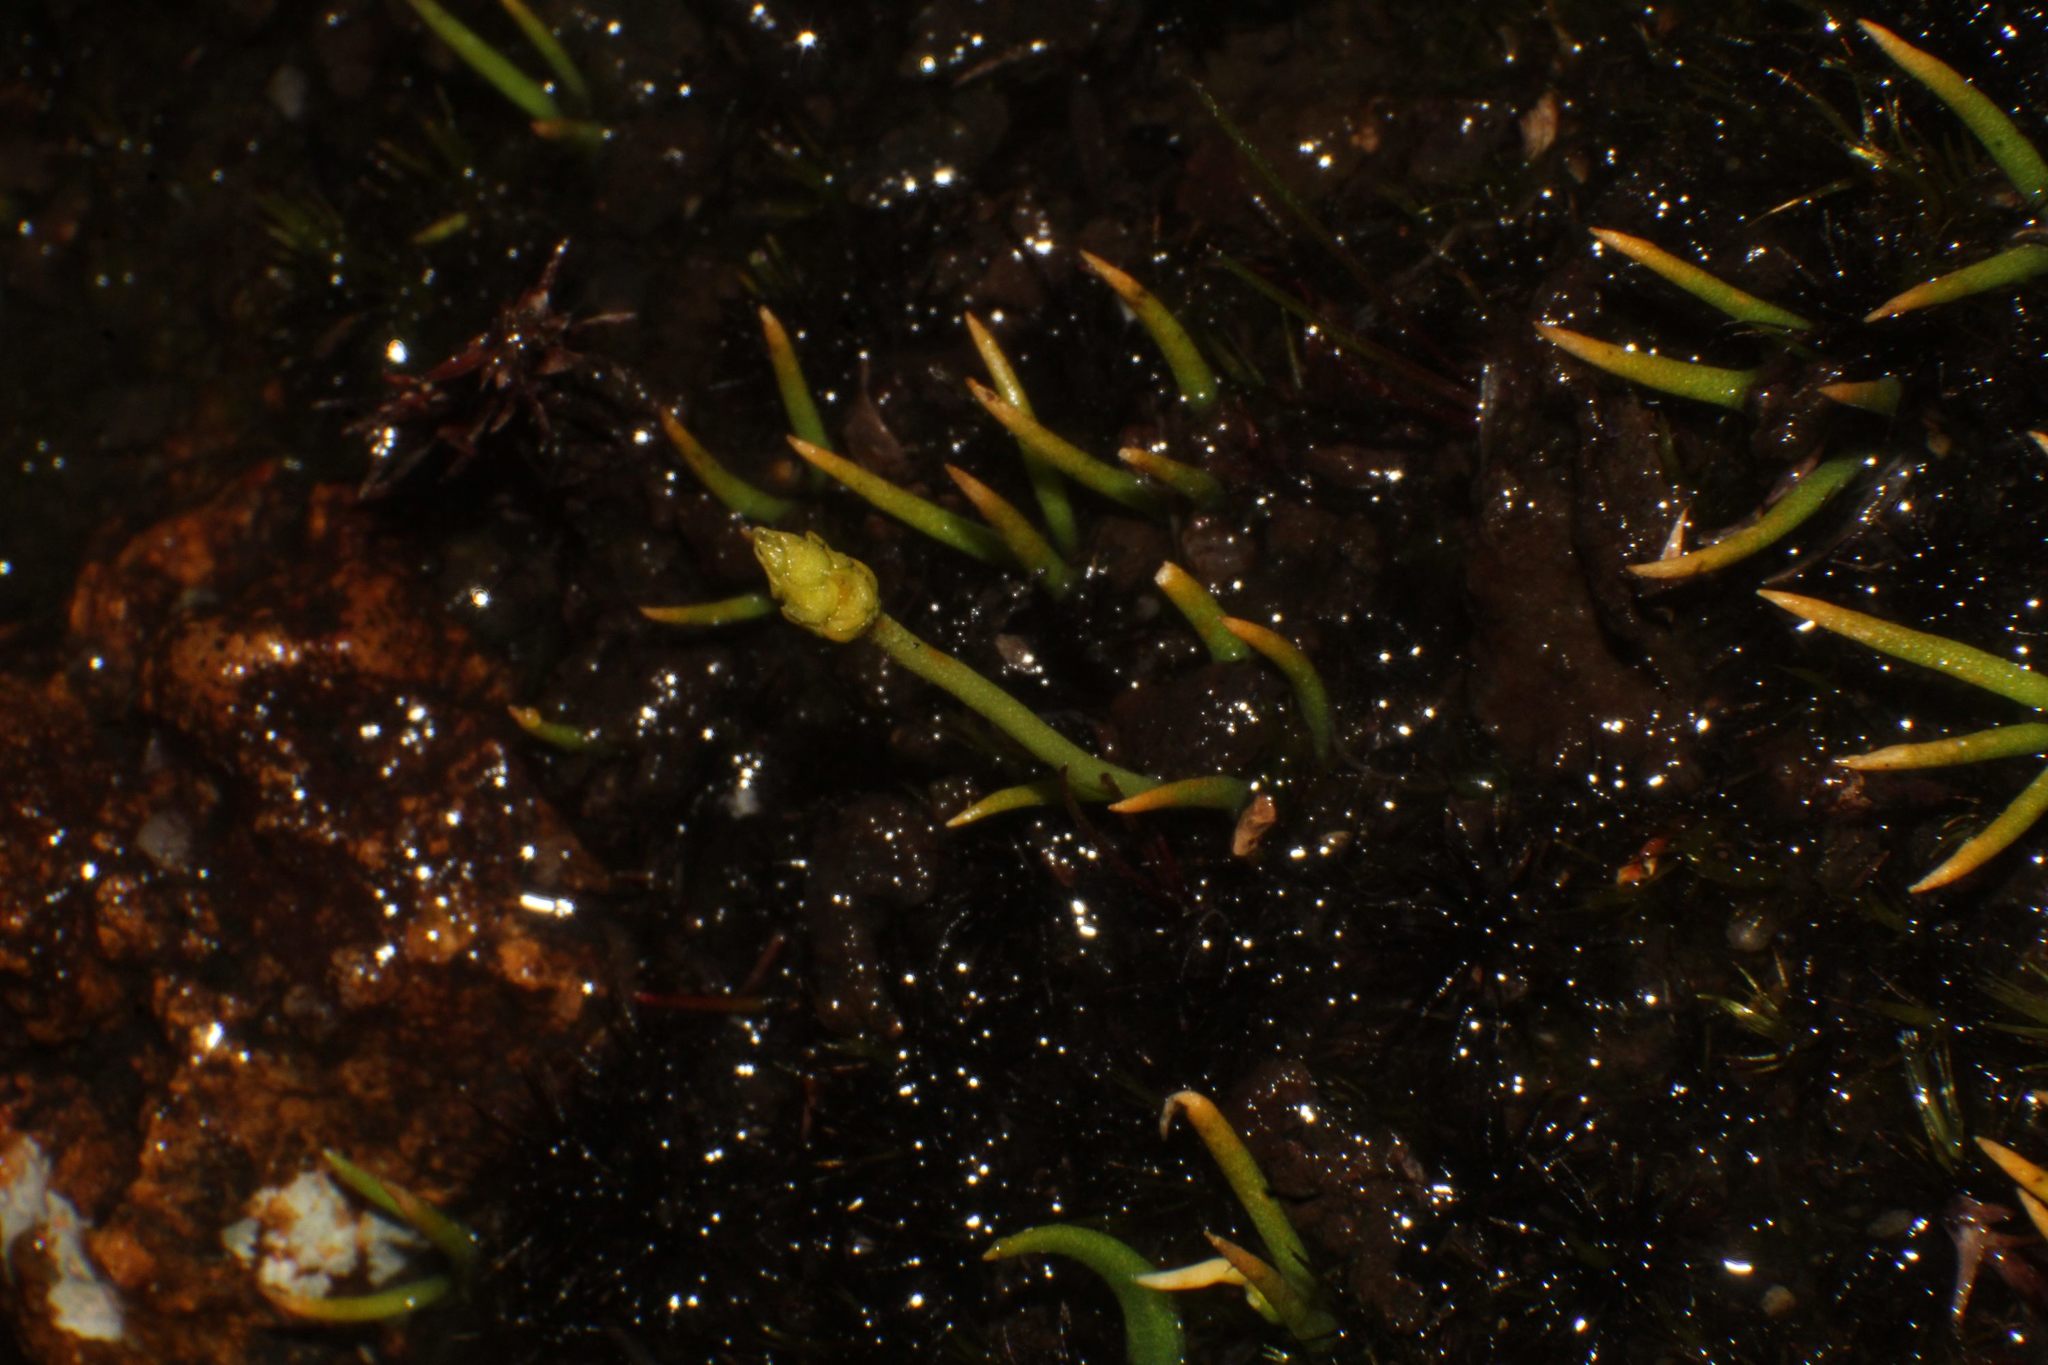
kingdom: Plantae
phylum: Tracheophyta
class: Lycopodiopsida
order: Lycopodiales
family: Lycopodiaceae
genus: Phylloglossum
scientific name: Phylloglossum drummondii
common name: Pigmy-club-moss
